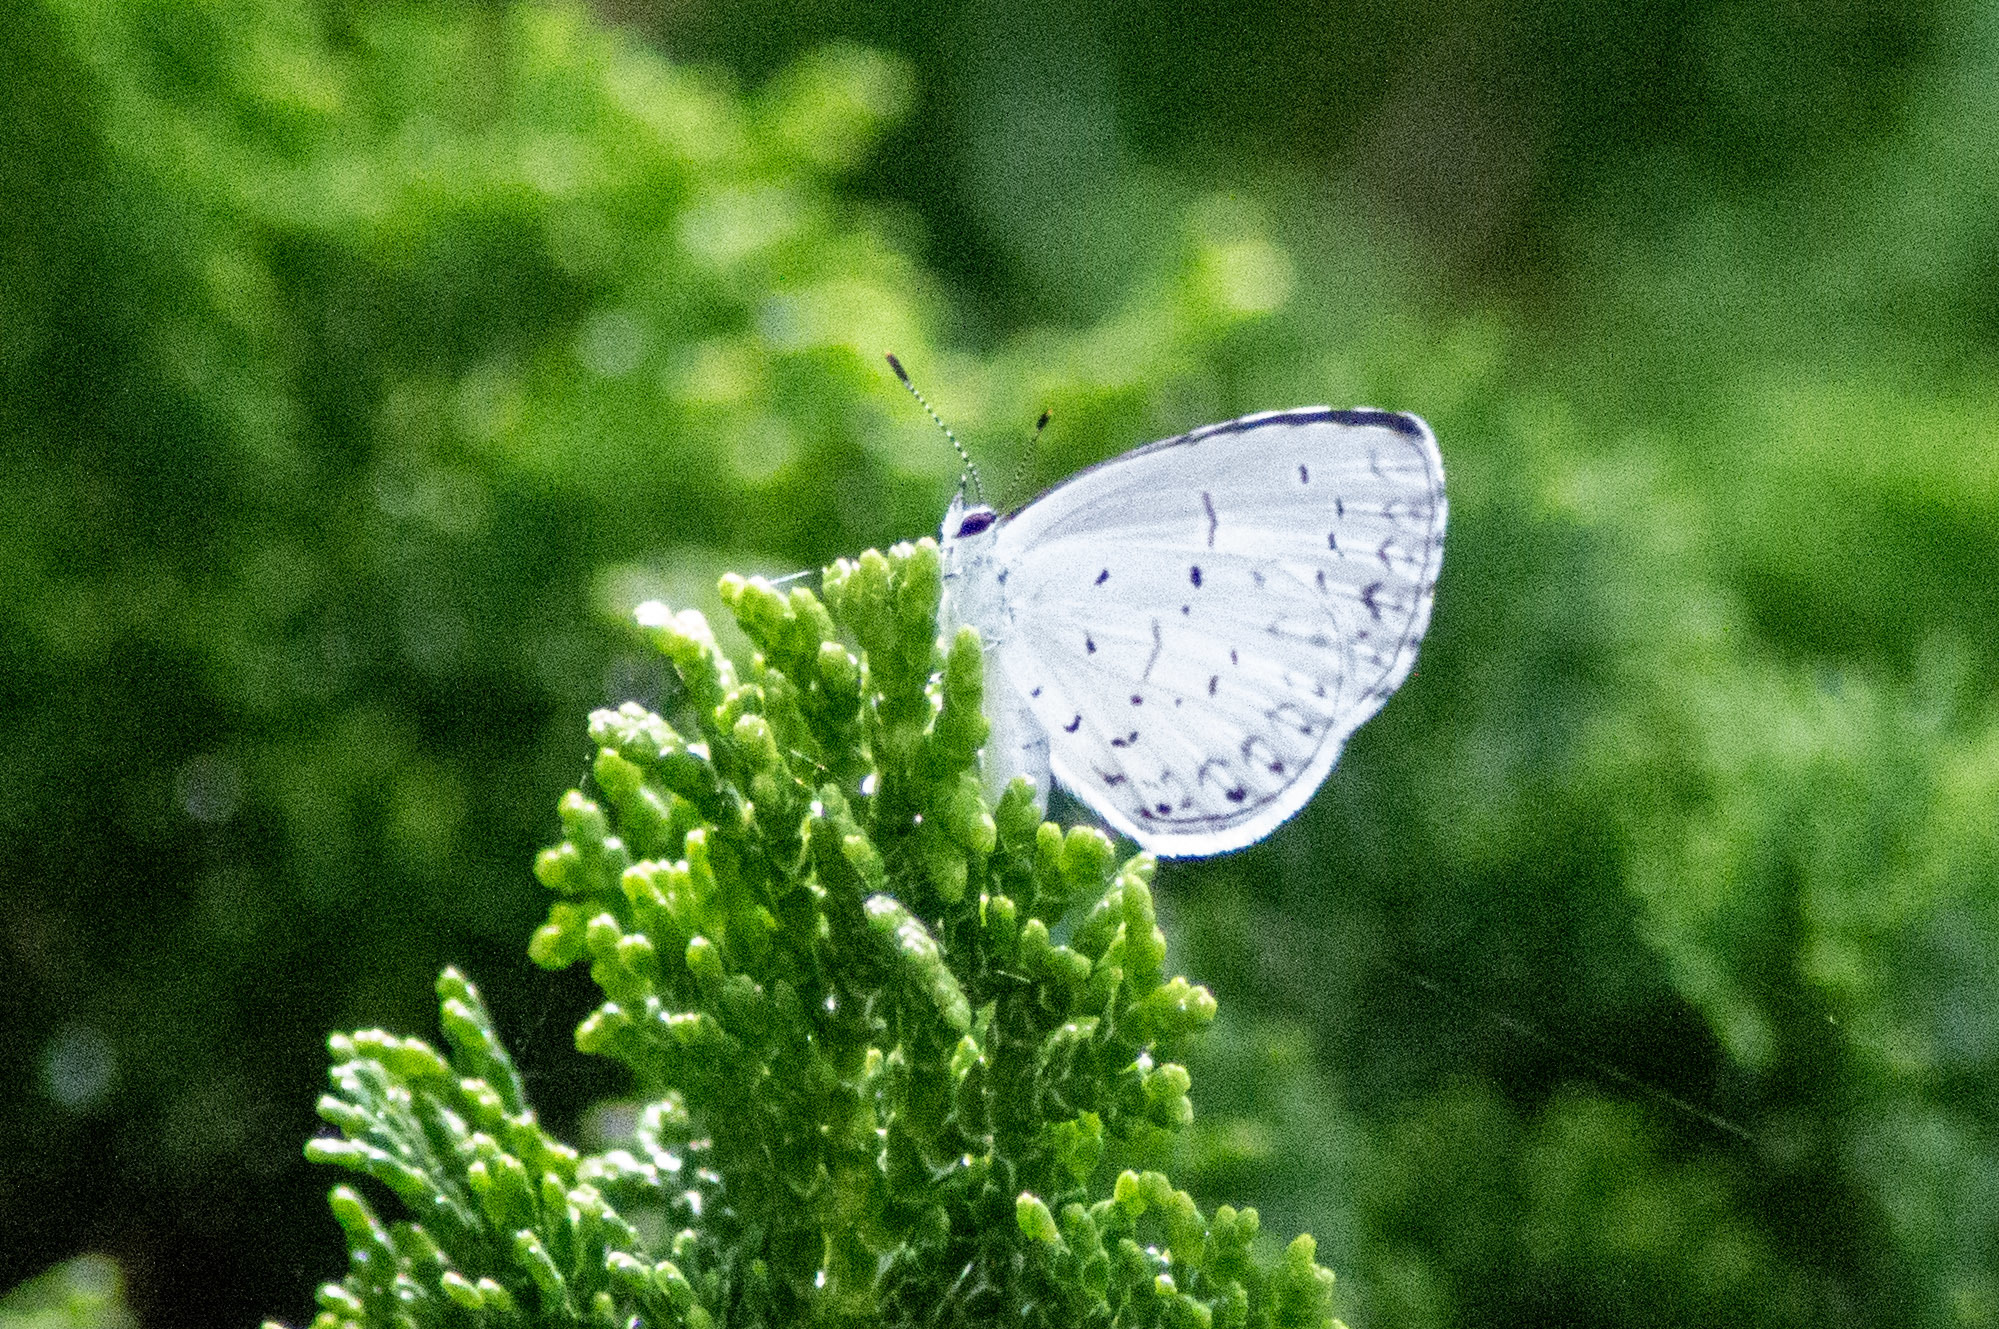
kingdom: Animalia
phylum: Arthropoda
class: Insecta
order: Lepidoptera
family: Lycaenidae
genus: Cyaniris
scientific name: Cyaniris neglecta
